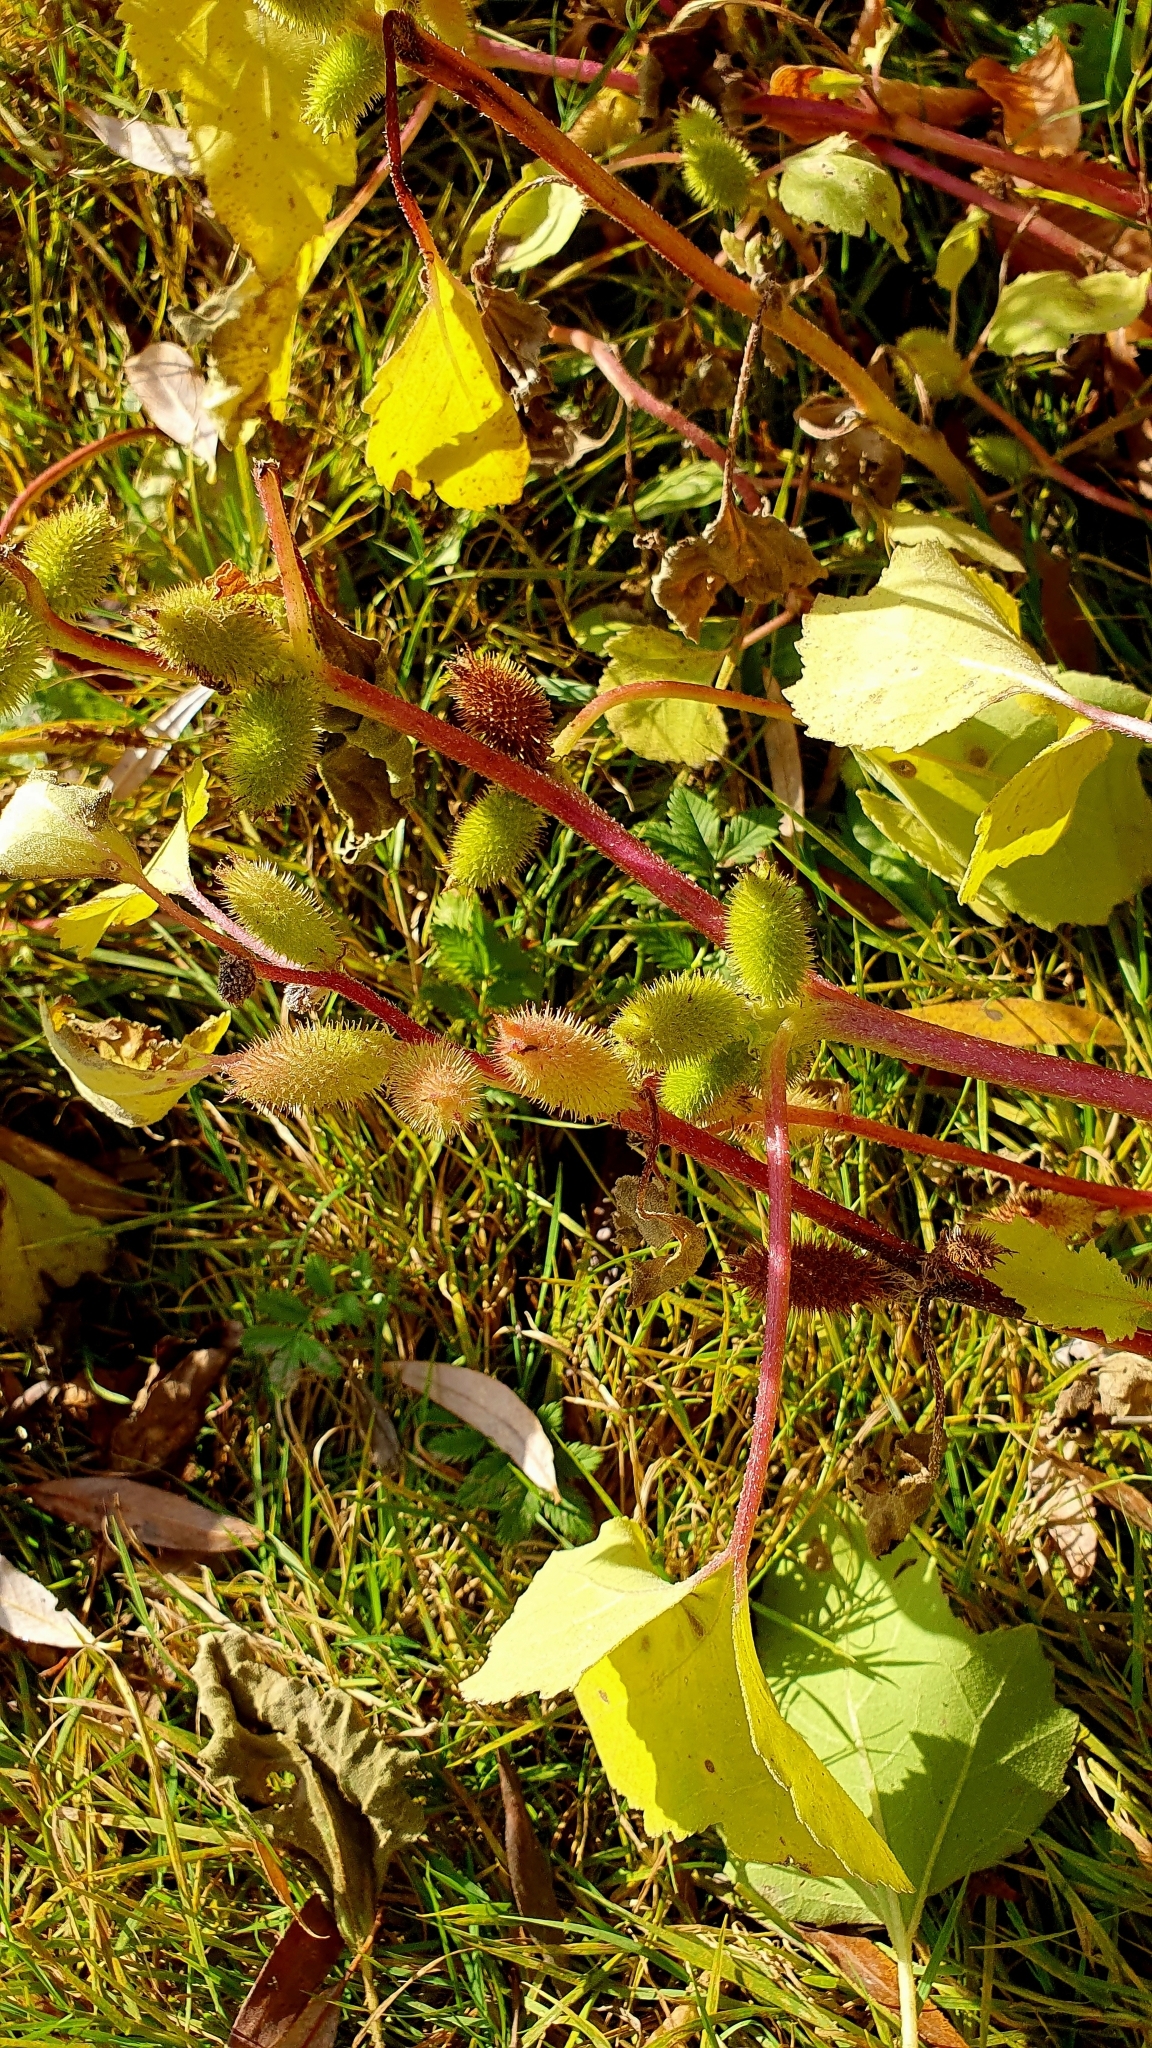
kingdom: Plantae
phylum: Tracheophyta
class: Magnoliopsida
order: Asterales
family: Asteraceae
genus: Xanthium
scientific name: Xanthium orientale
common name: Californian burr
